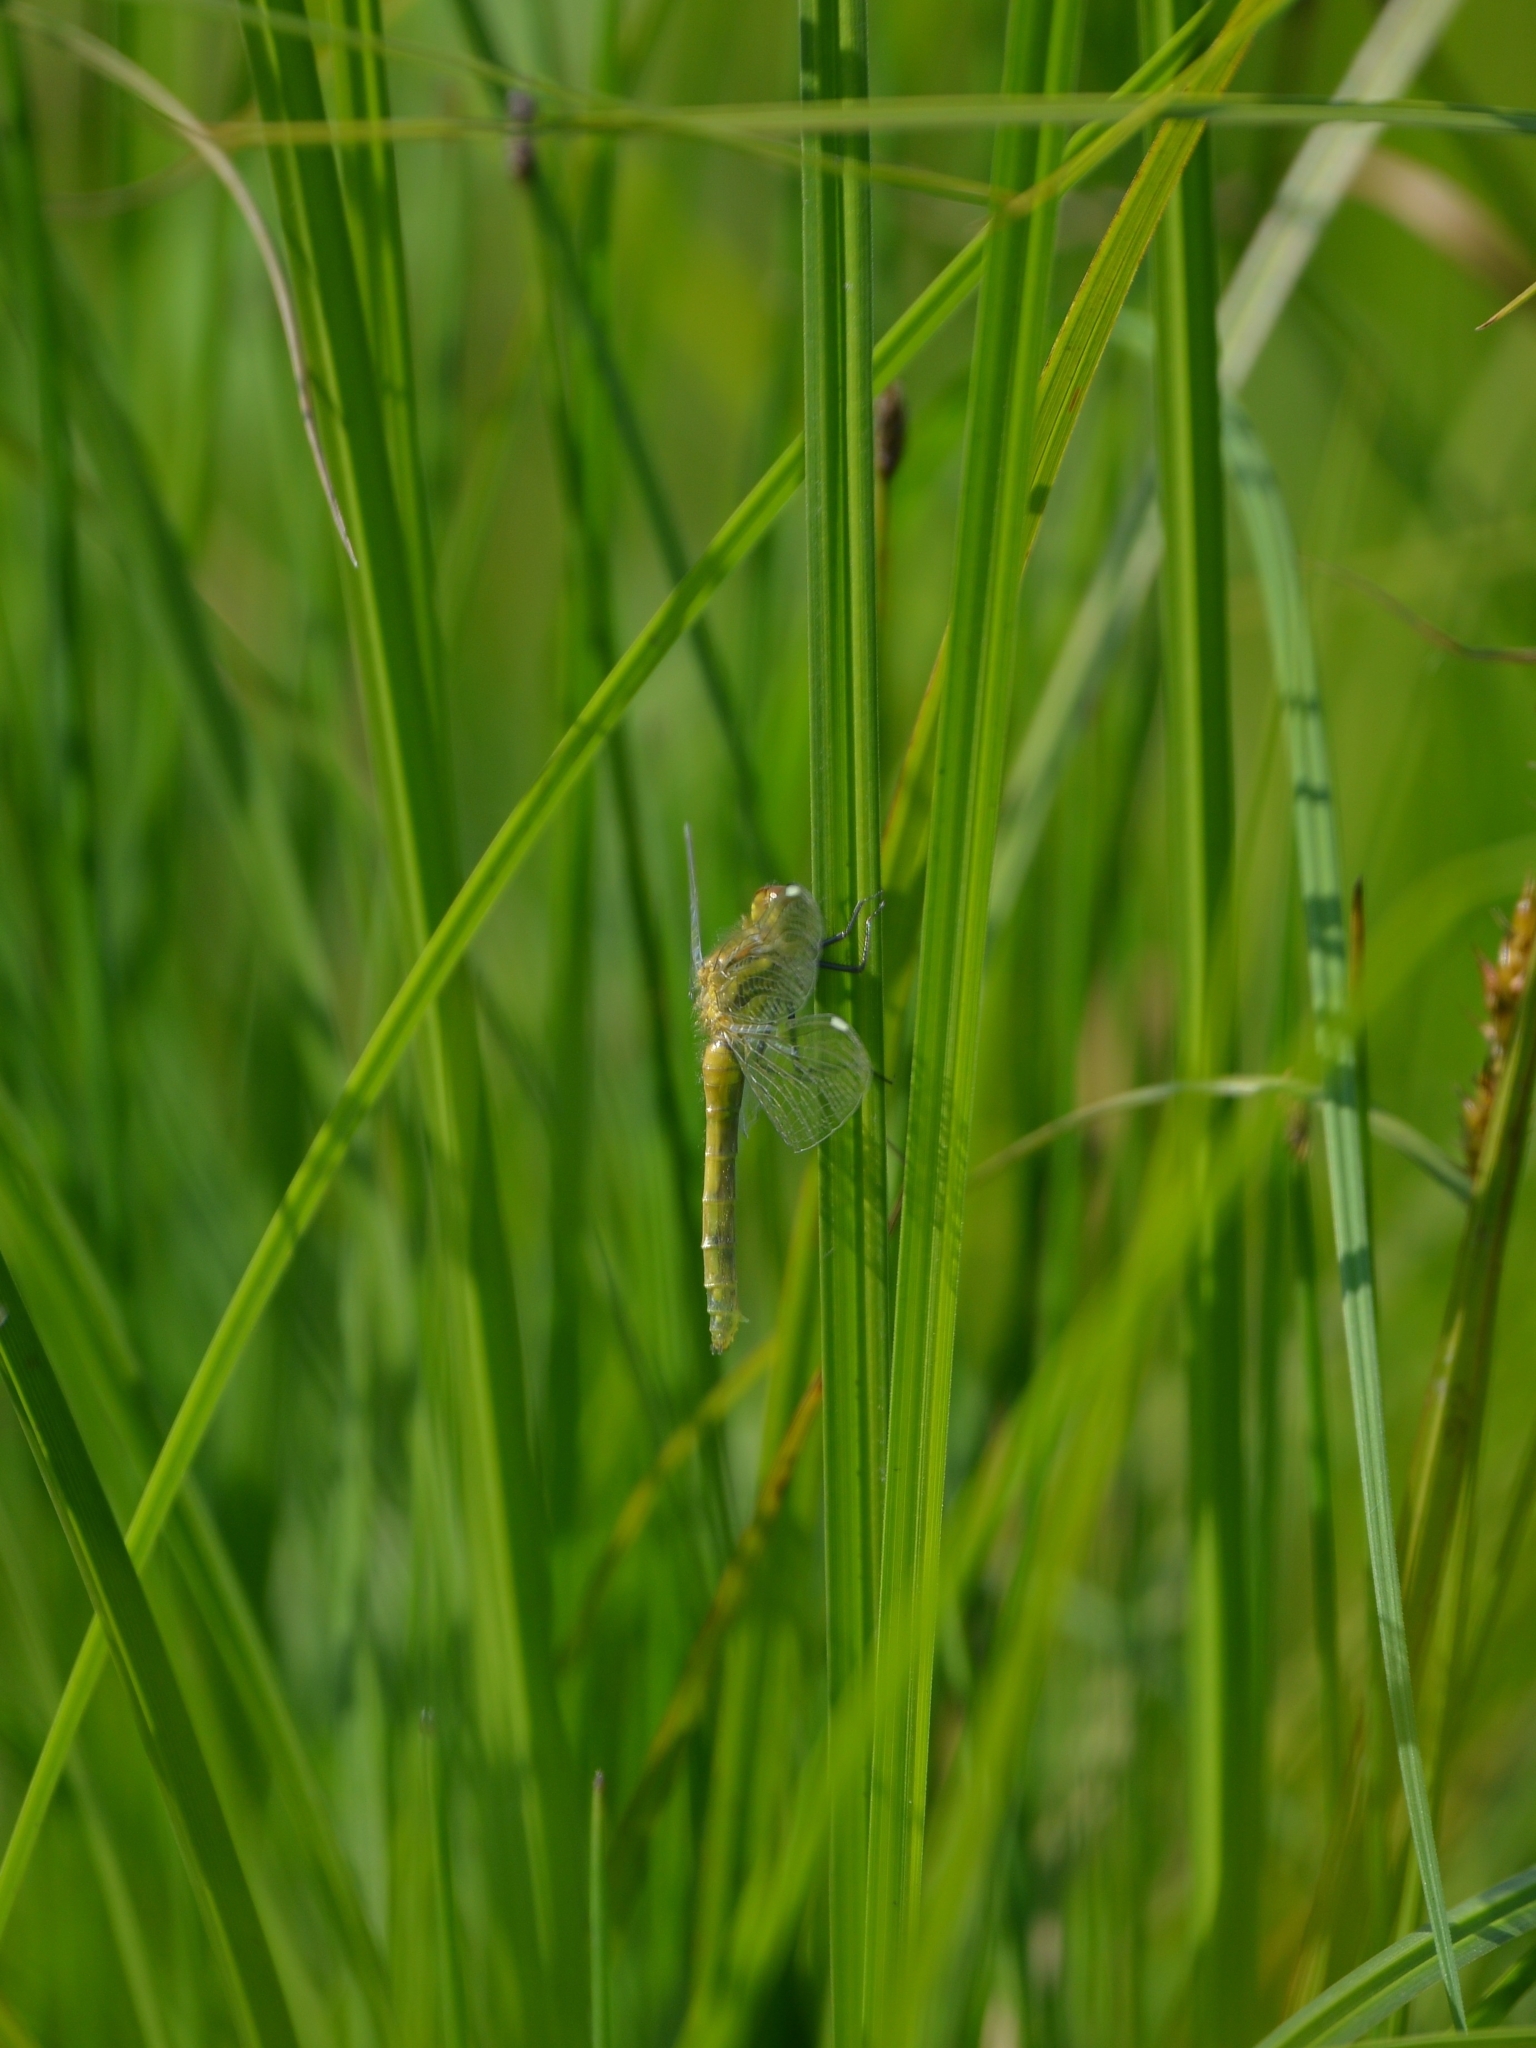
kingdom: Animalia
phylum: Arthropoda
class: Insecta
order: Odonata
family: Libellulidae
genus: Sympetrum
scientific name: Sympetrum danae
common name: Black darter
